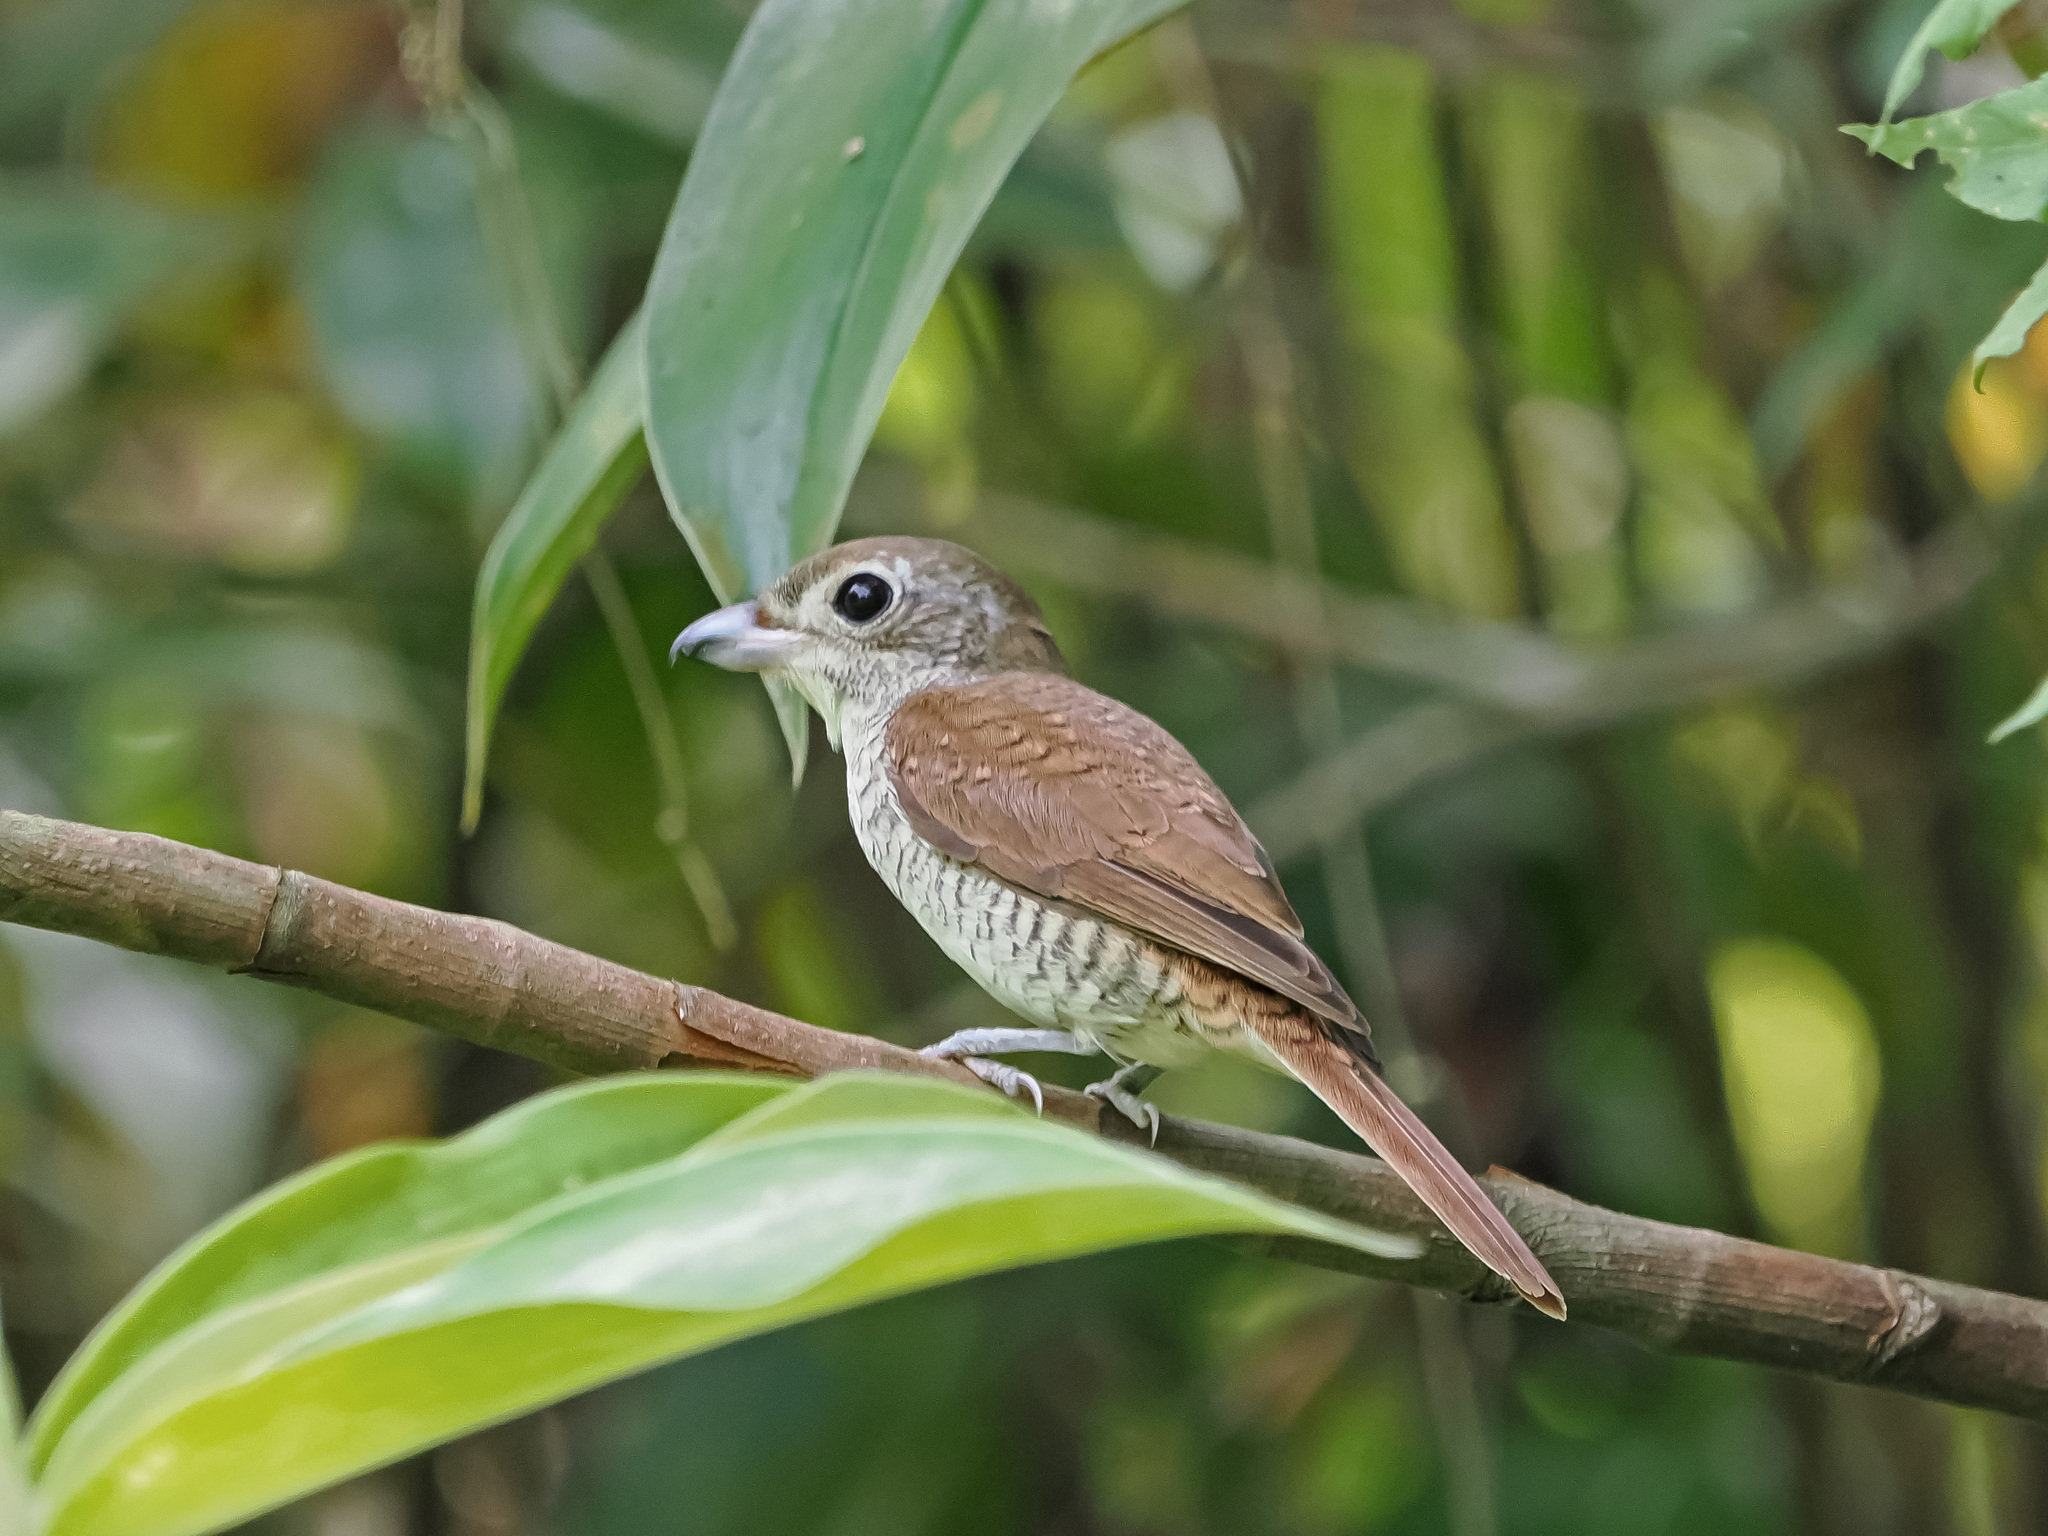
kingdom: Animalia
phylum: Chordata
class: Aves
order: Passeriformes
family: Laniidae
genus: Lanius
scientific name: Lanius tigrinus
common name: Tiger shrike
